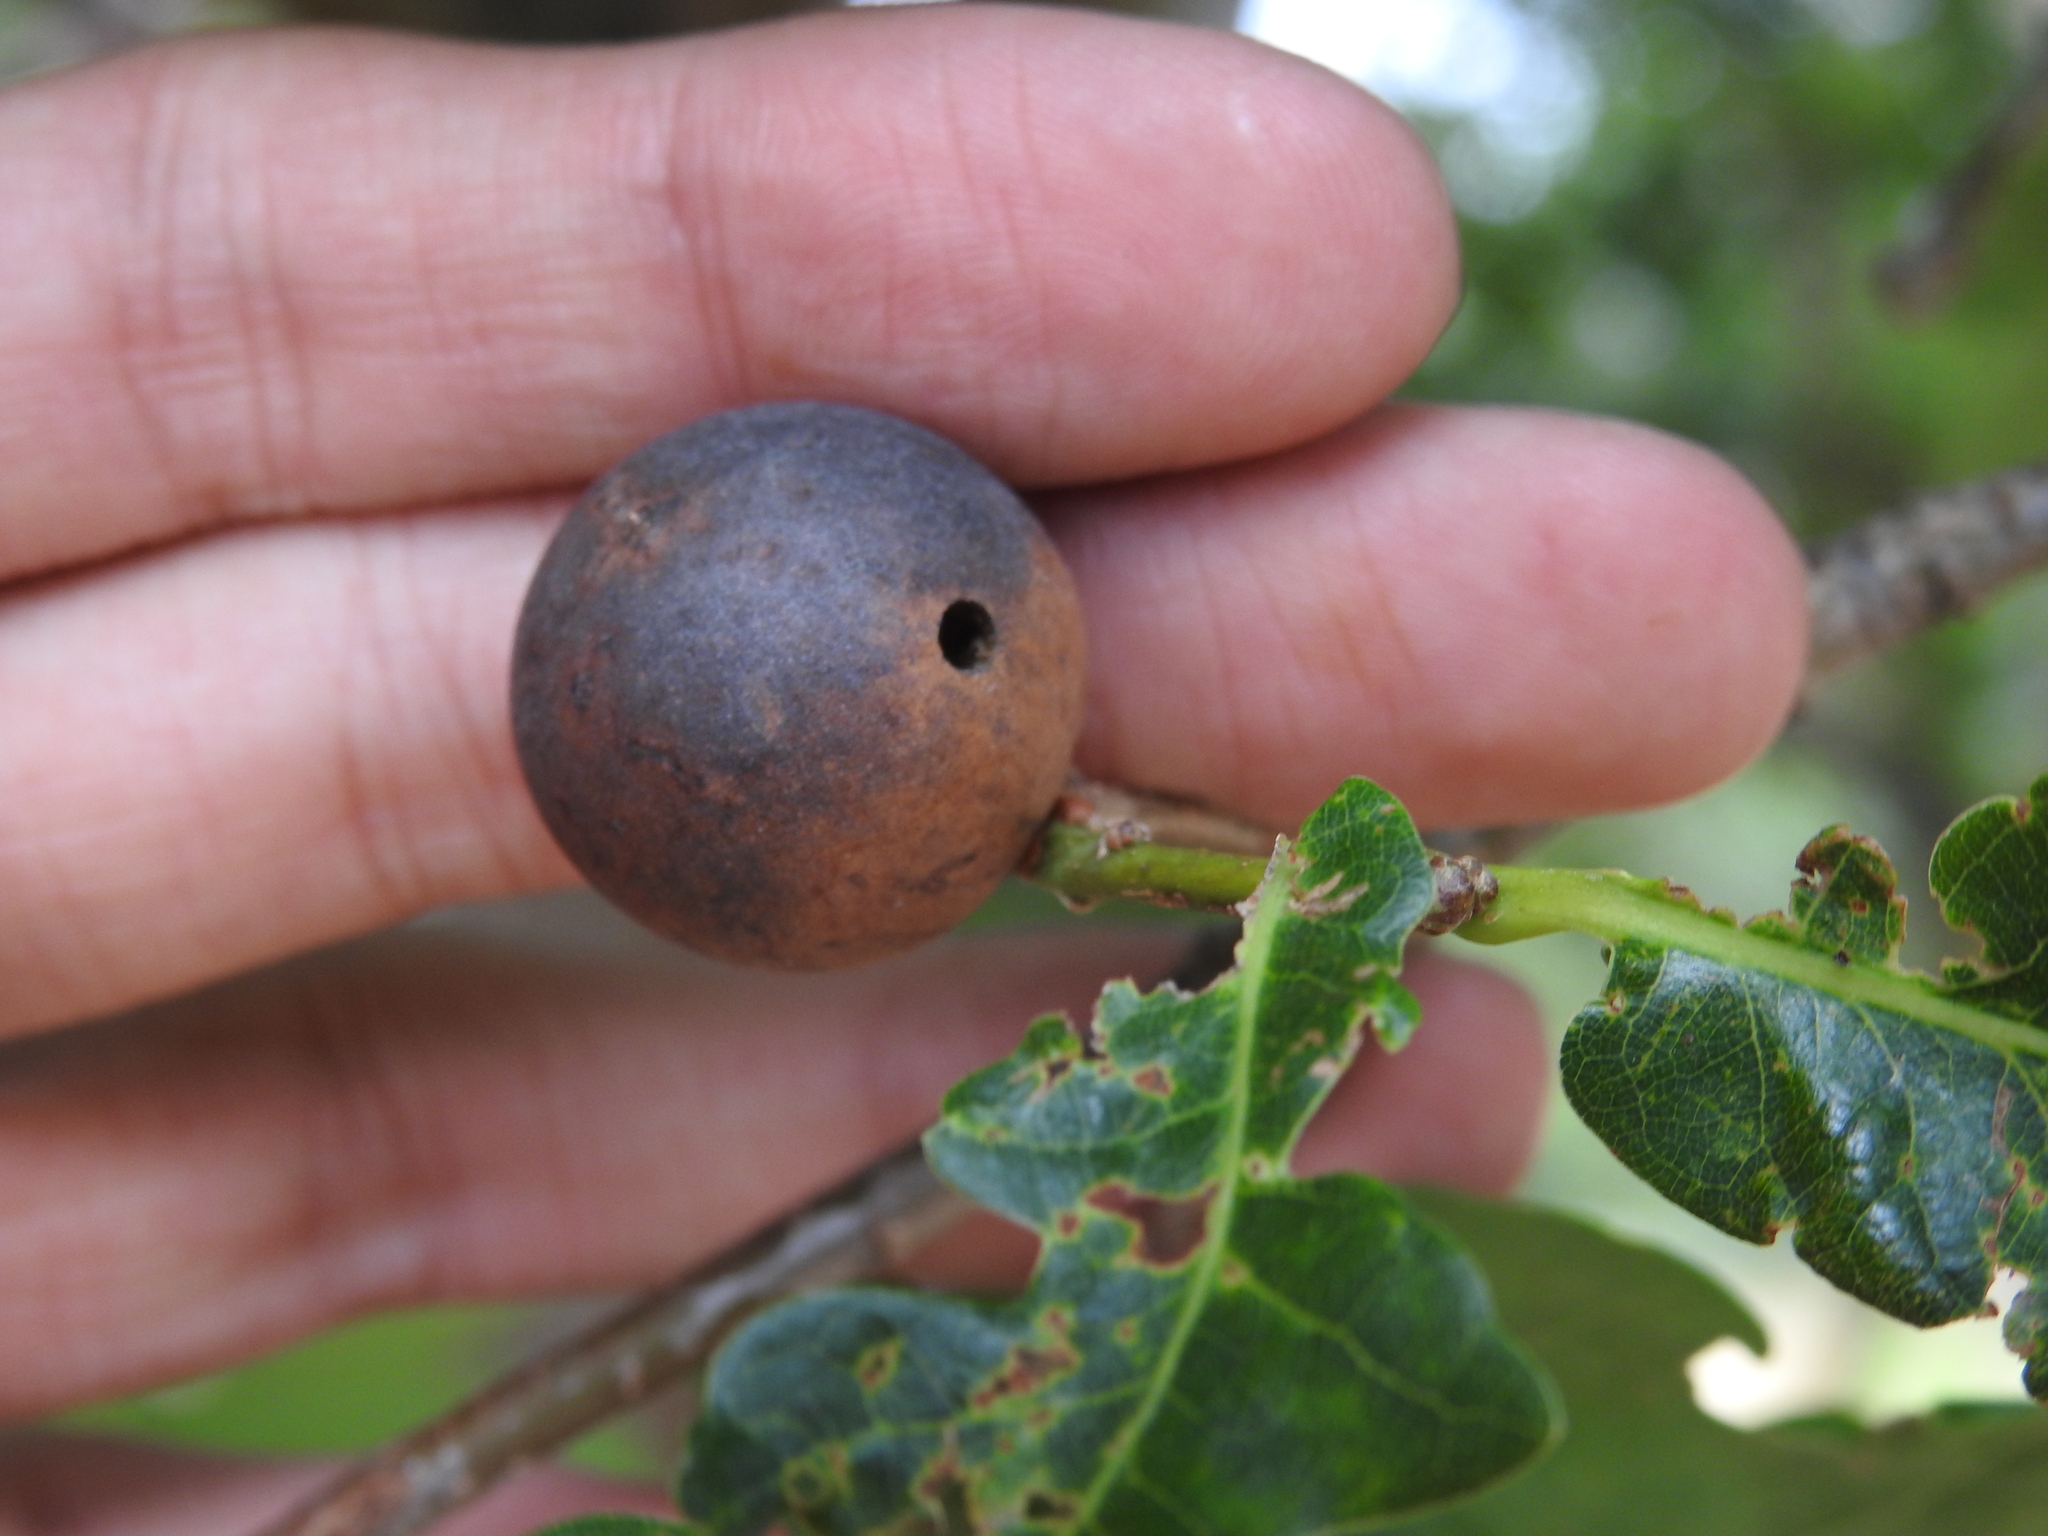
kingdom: Animalia
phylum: Arthropoda
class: Insecta
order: Hymenoptera
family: Cynipidae
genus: Andricus
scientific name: Andricus kollari
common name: Marble gall
